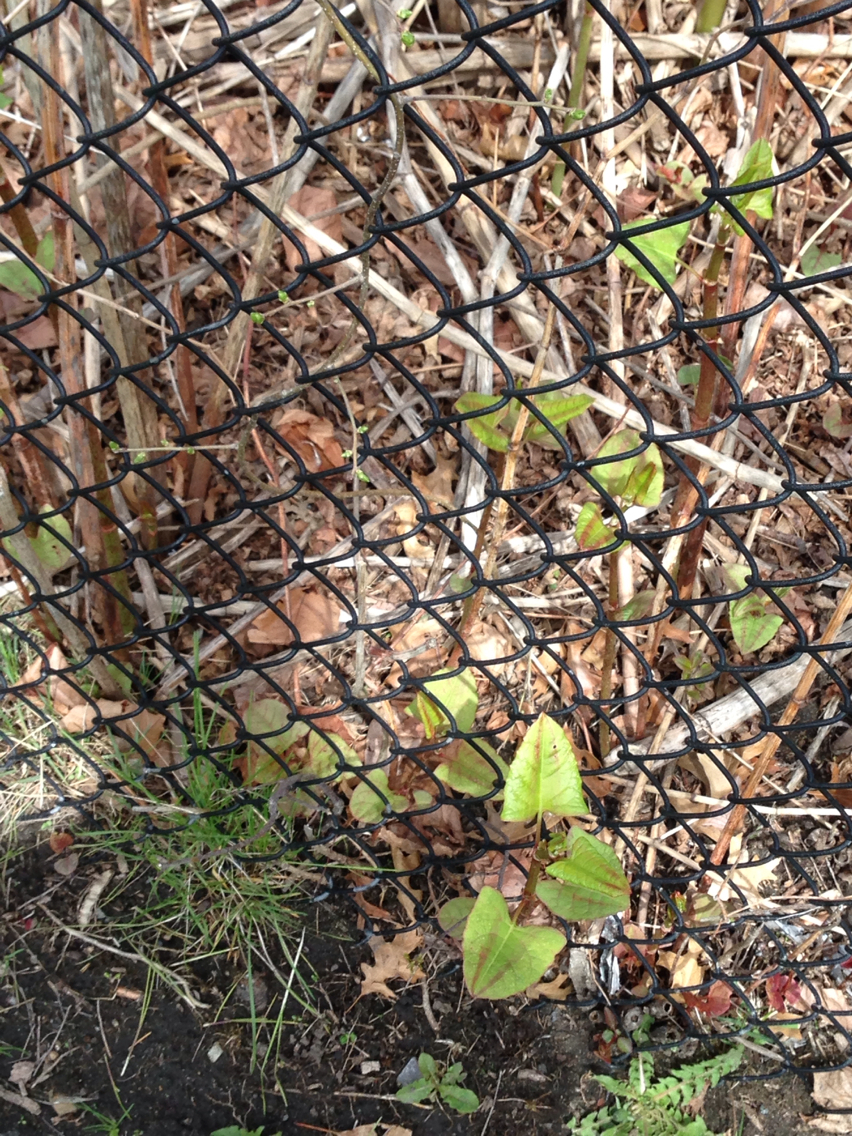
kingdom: Plantae
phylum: Tracheophyta
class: Magnoliopsida
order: Caryophyllales
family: Polygonaceae
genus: Reynoutria
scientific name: Reynoutria japonica
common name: Japanese knotweed
